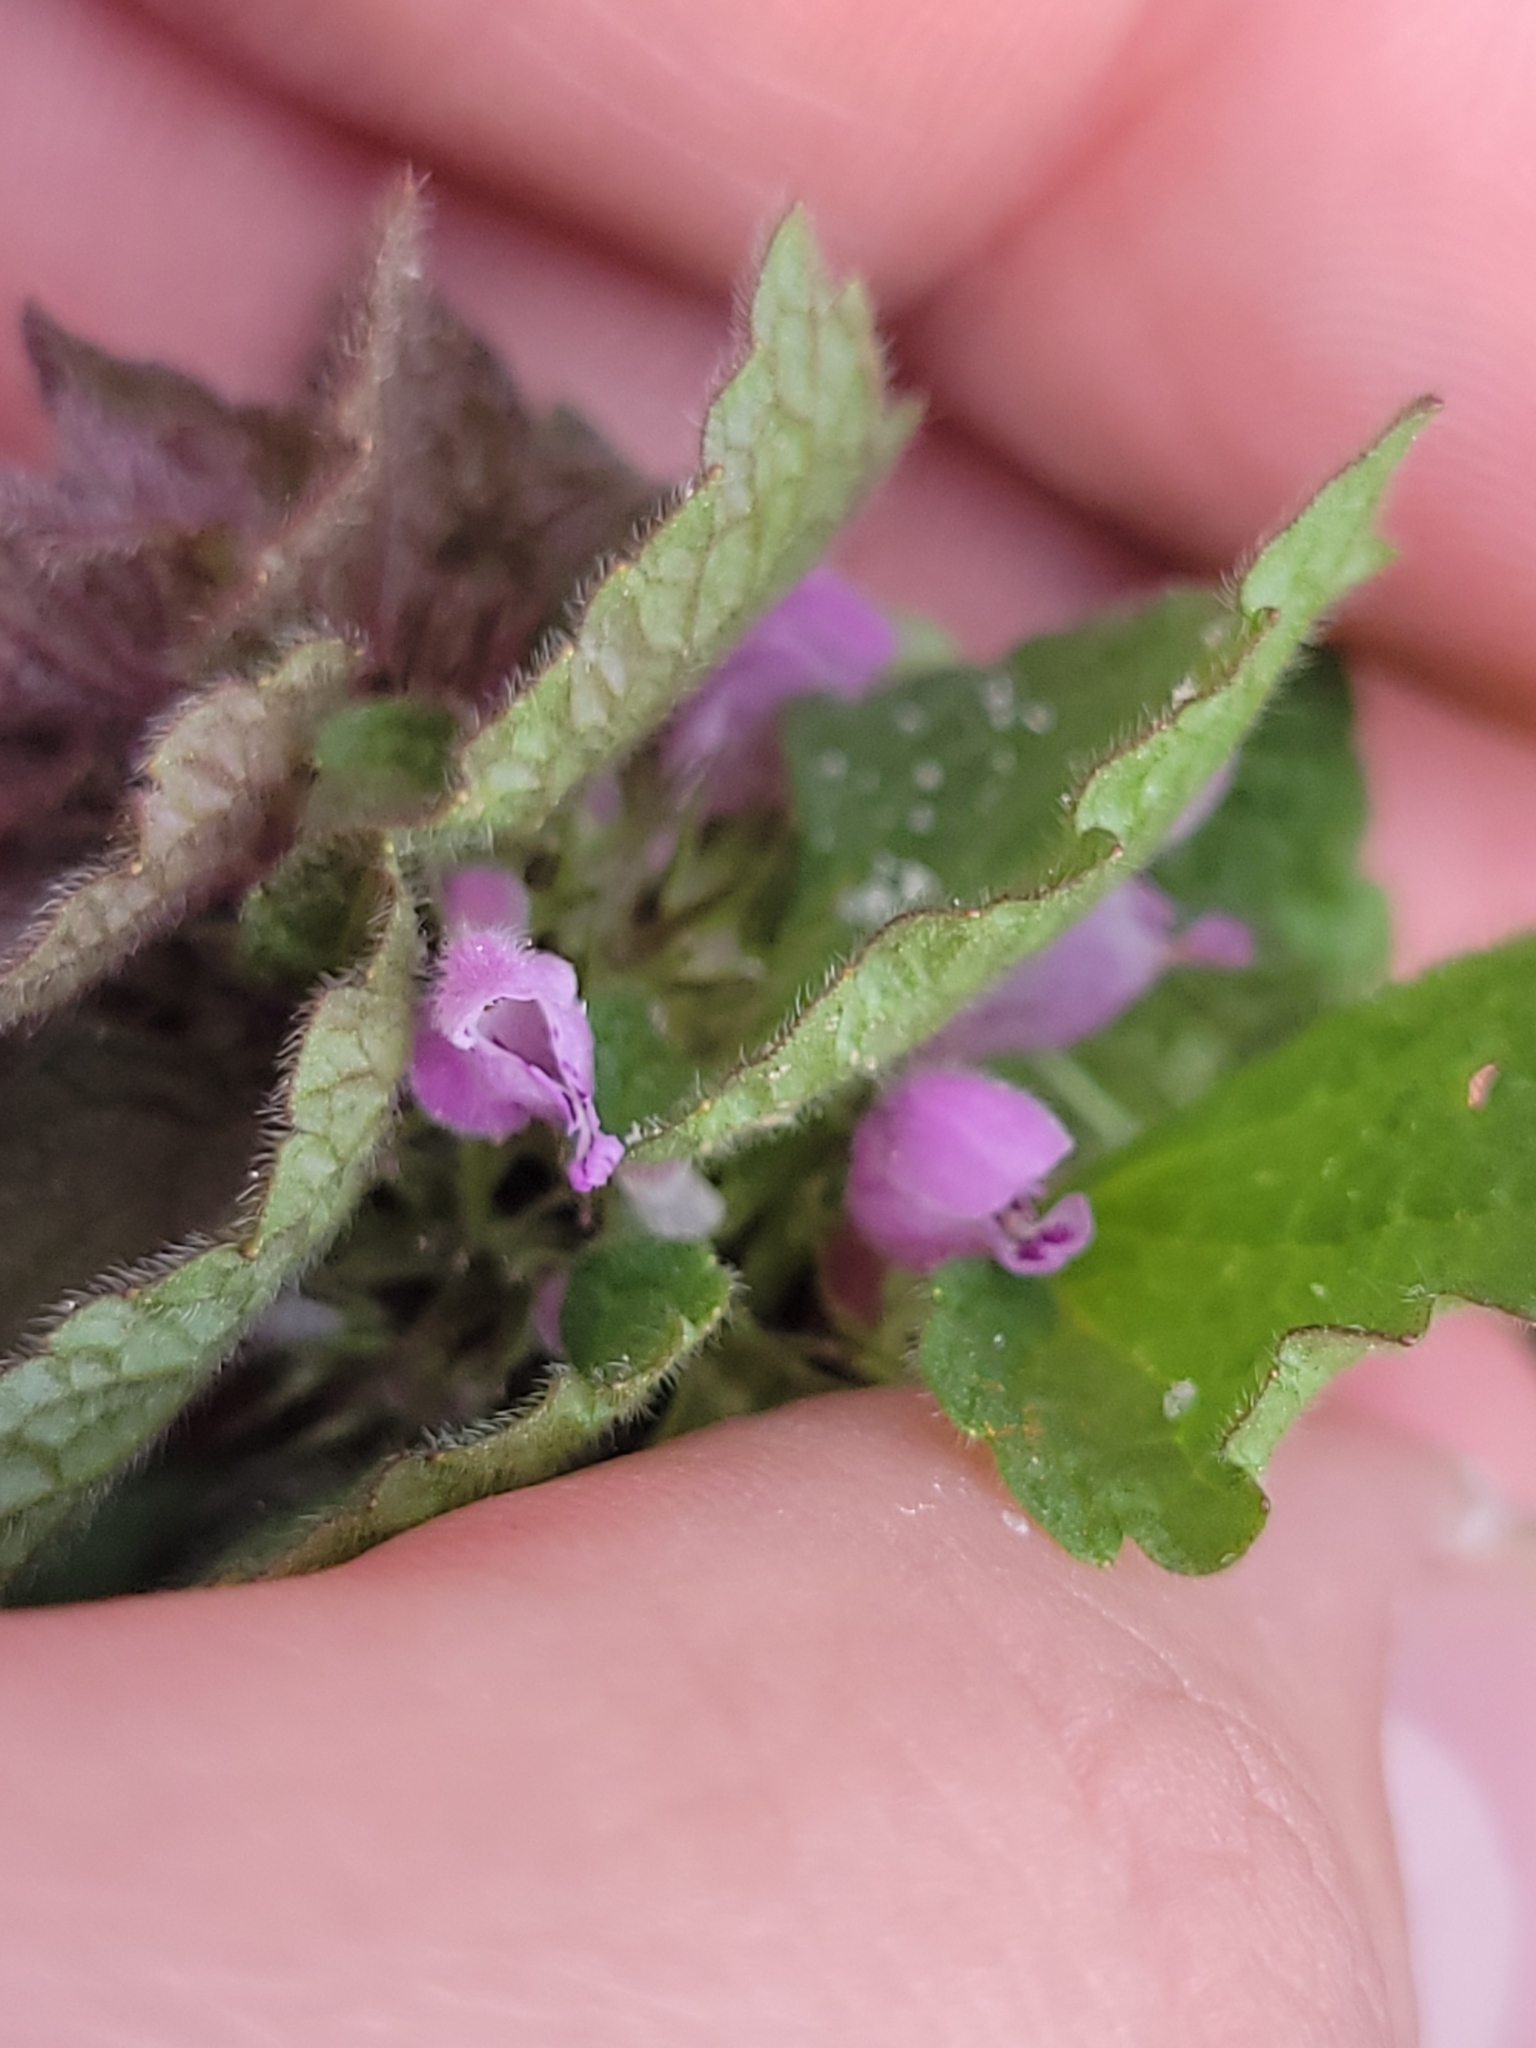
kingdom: Plantae
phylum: Tracheophyta
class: Magnoliopsida
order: Lamiales
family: Lamiaceae
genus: Lamium
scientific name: Lamium purpureum
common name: Red dead-nettle
